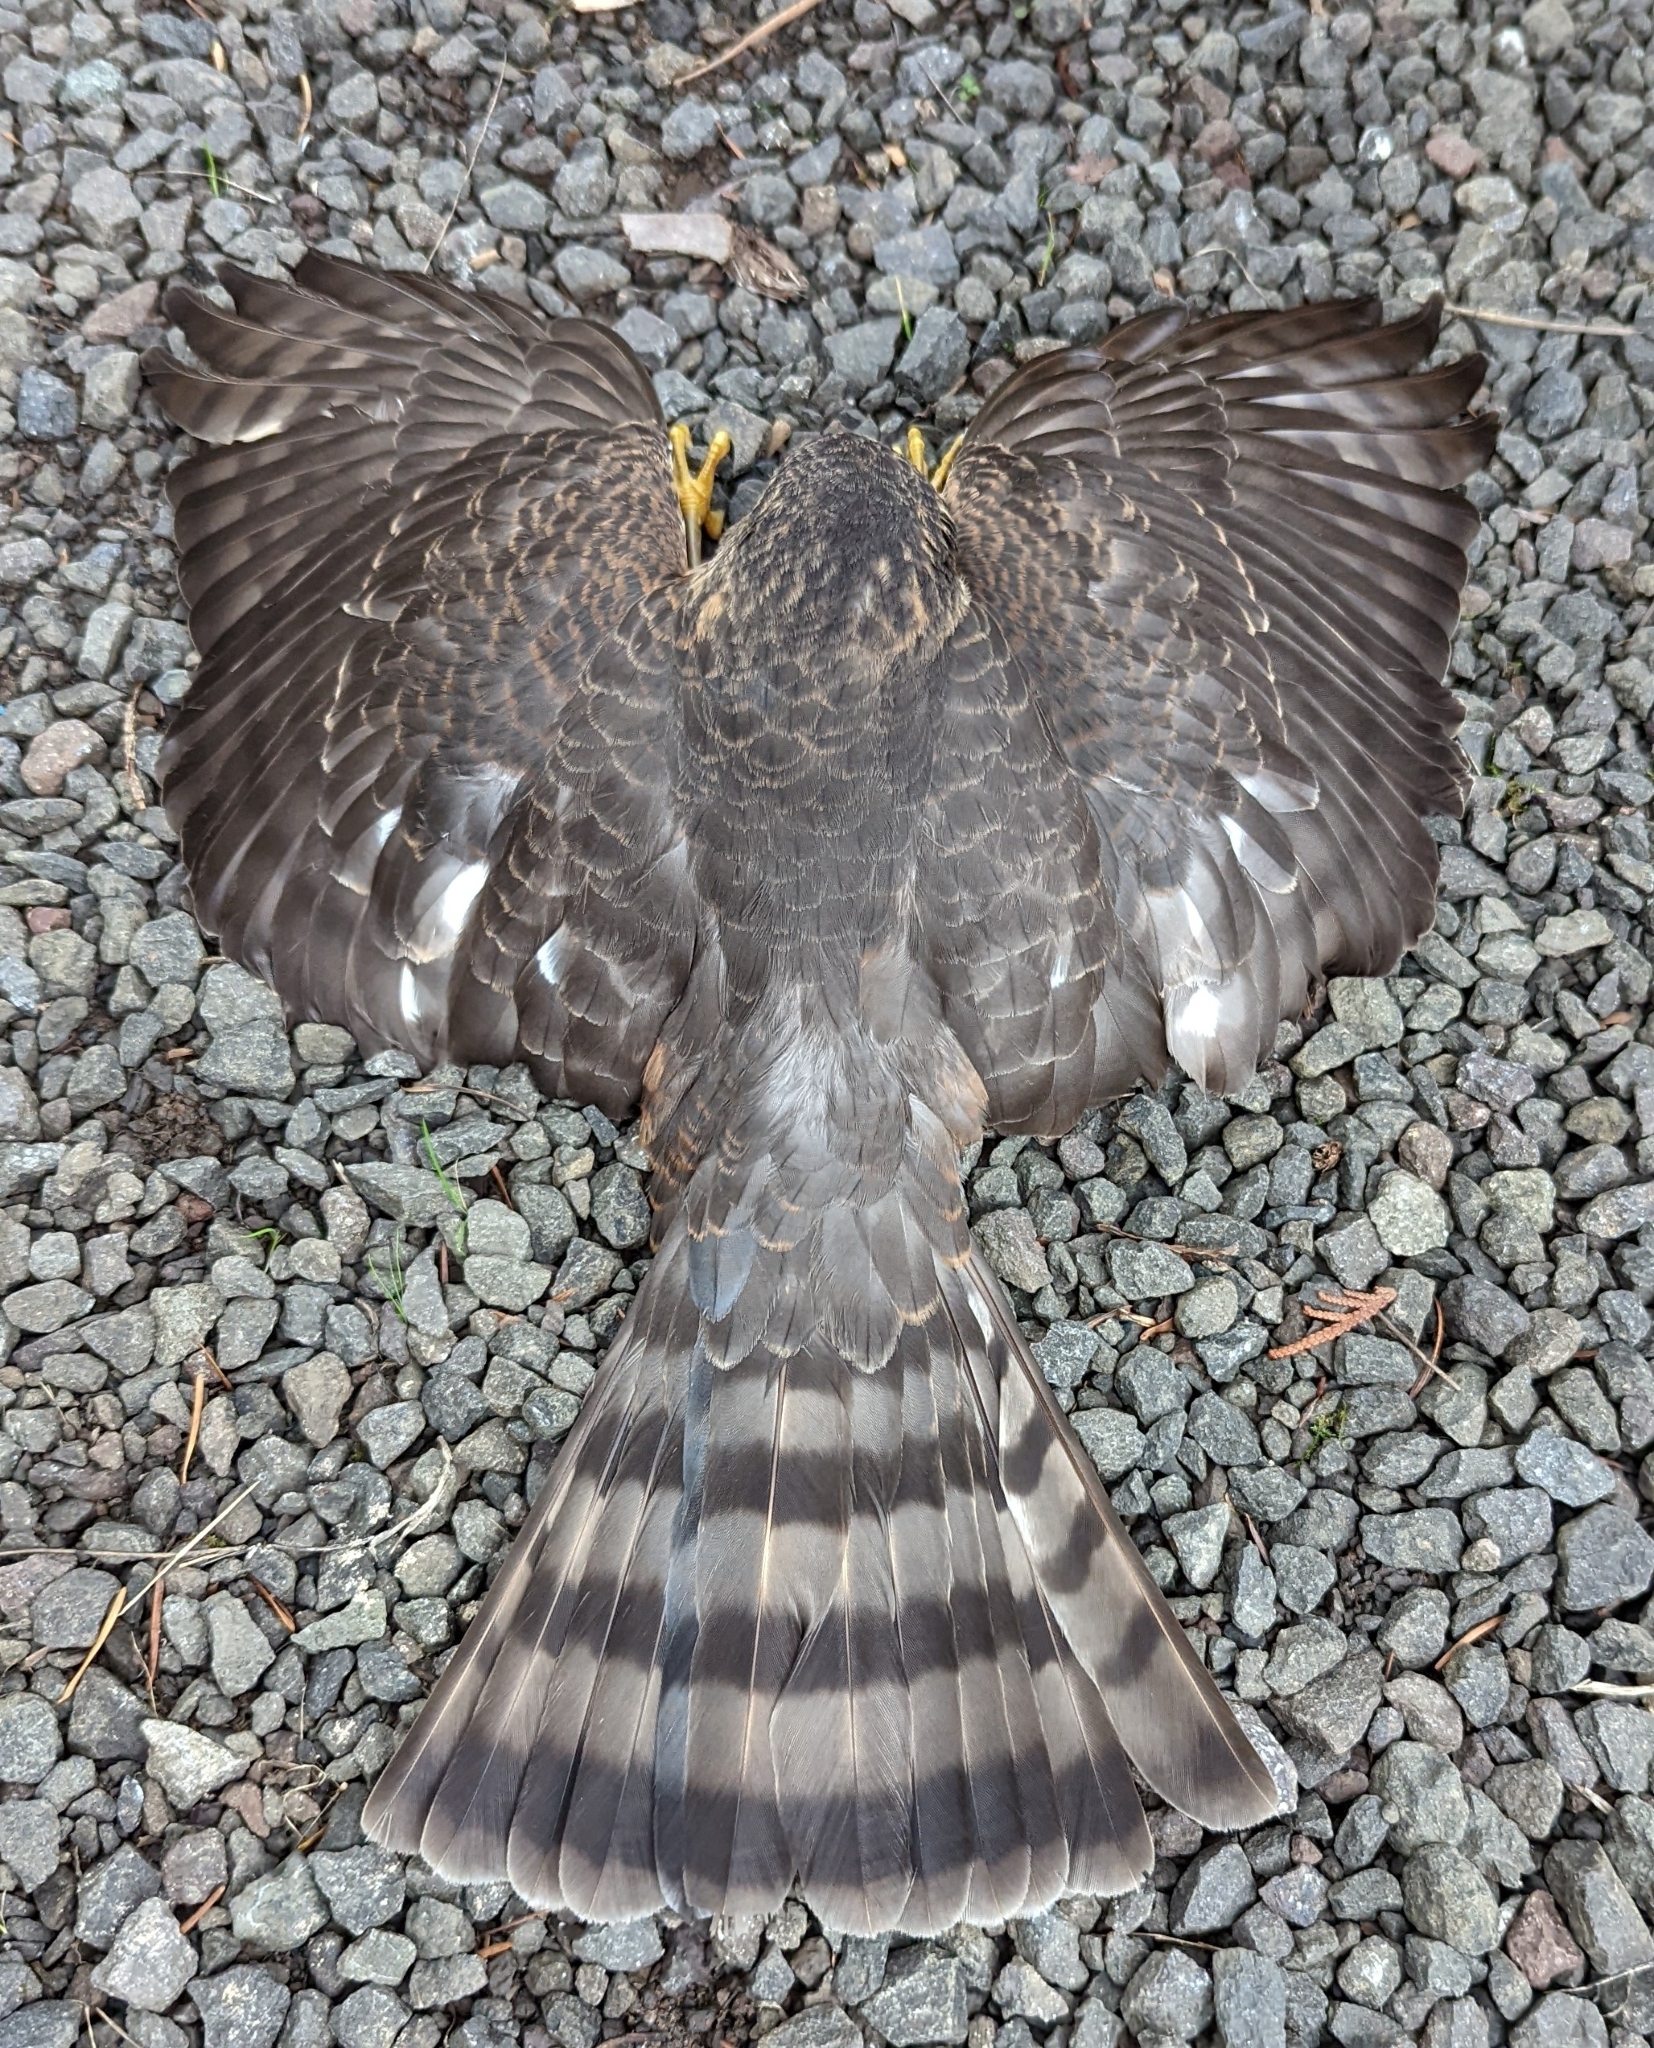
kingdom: Animalia
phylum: Chordata
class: Aves
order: Accipitriformes
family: Accipitridae
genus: Accipiter
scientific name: Accipiter striatus
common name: Sharp-shinned hawk
